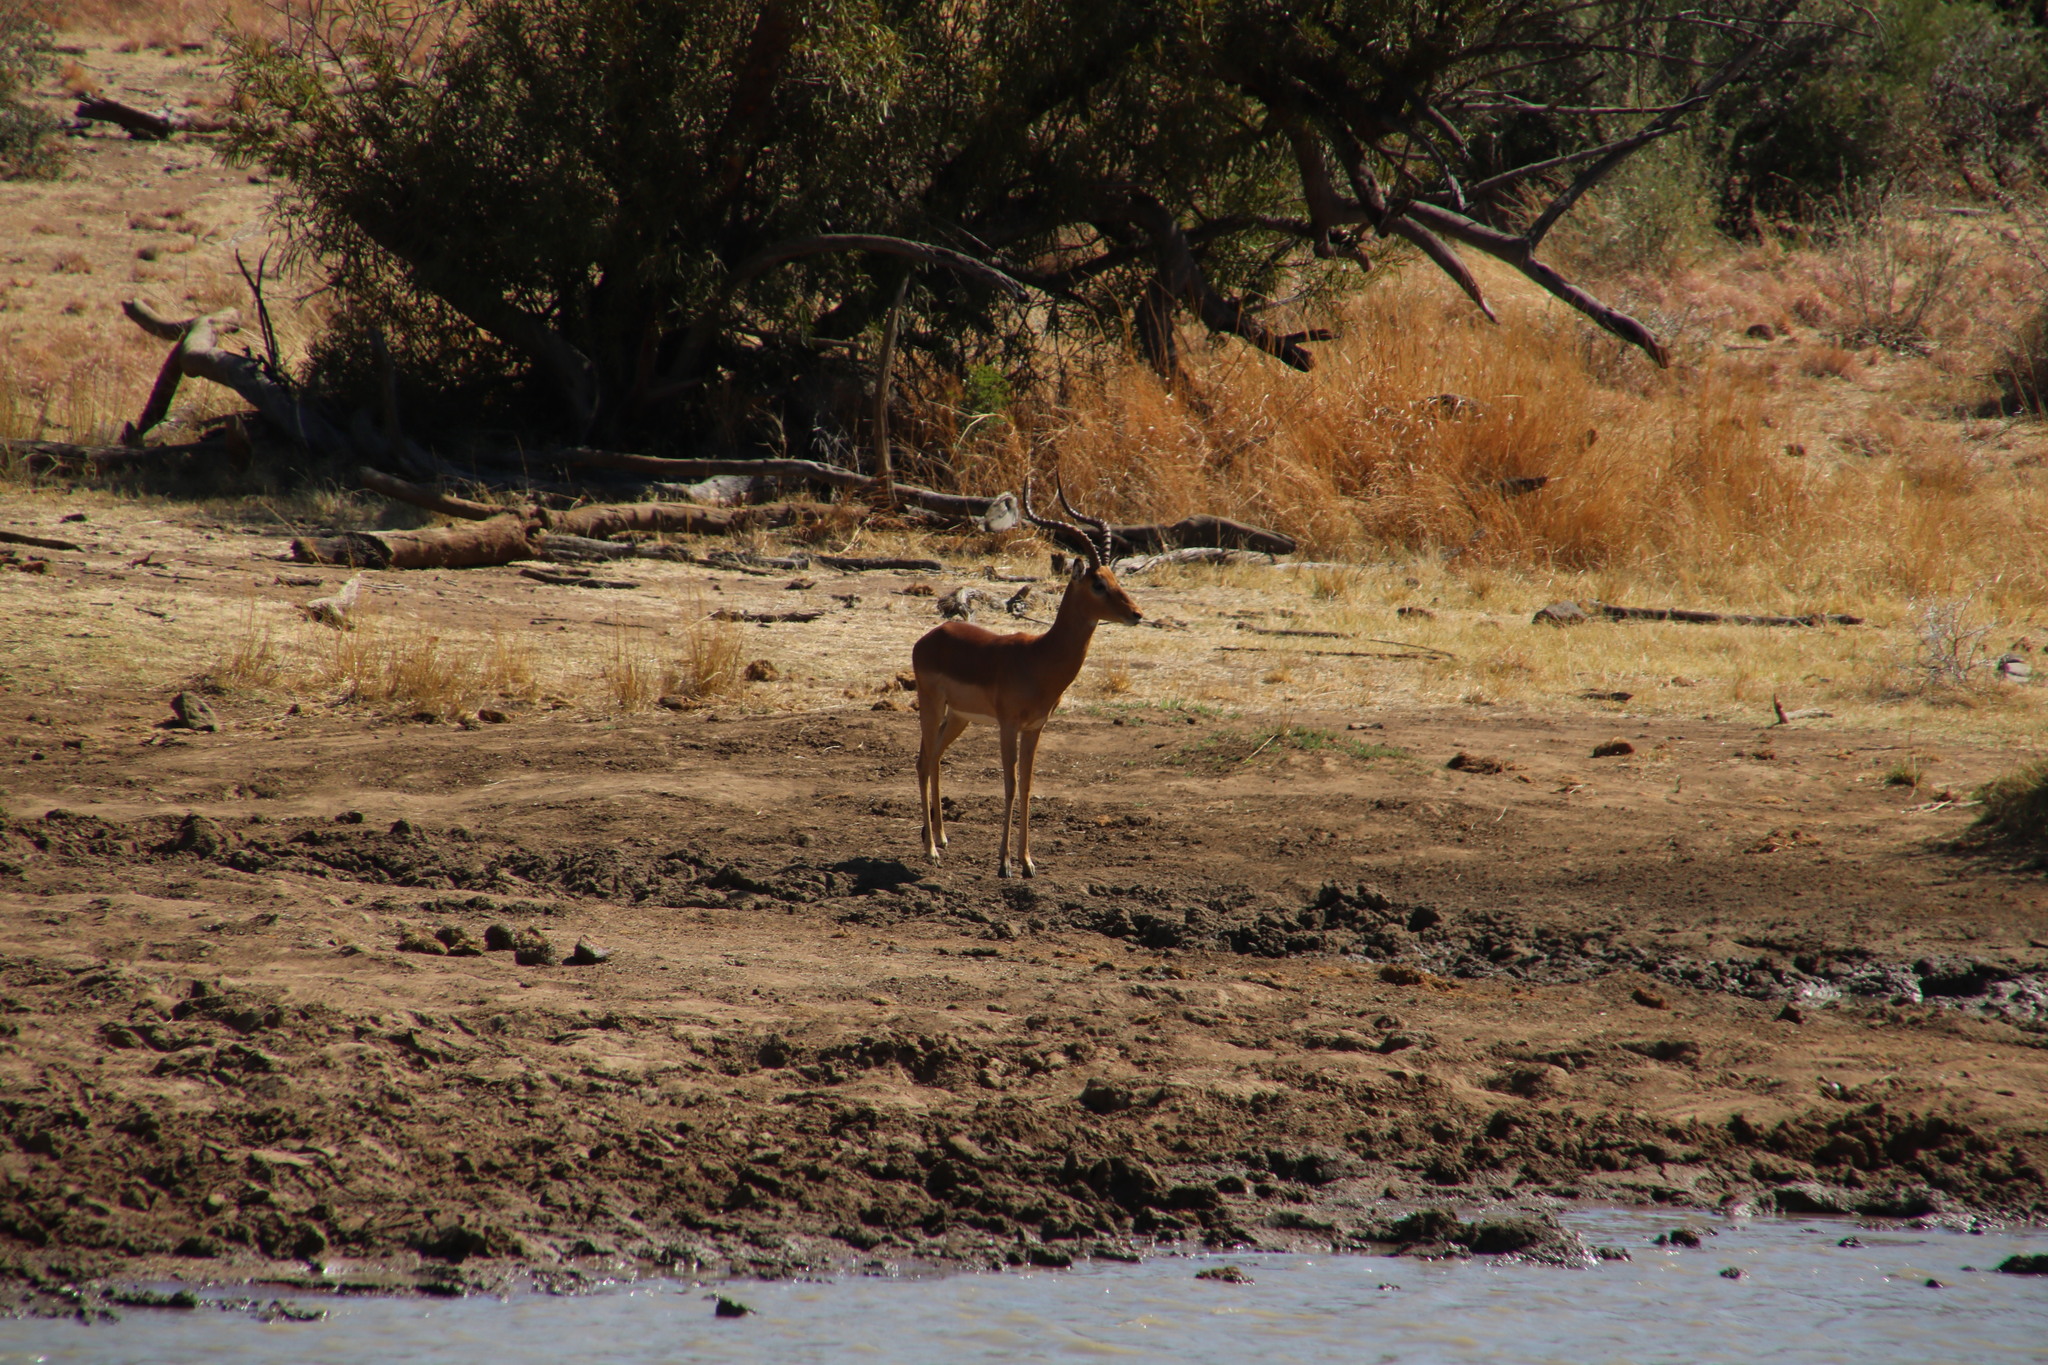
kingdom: Animalia
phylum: Chordata
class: Mammalia
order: Artiodactyla
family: Bovidae
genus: Aepyceros
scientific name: Aepyceros melampus
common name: Impala
